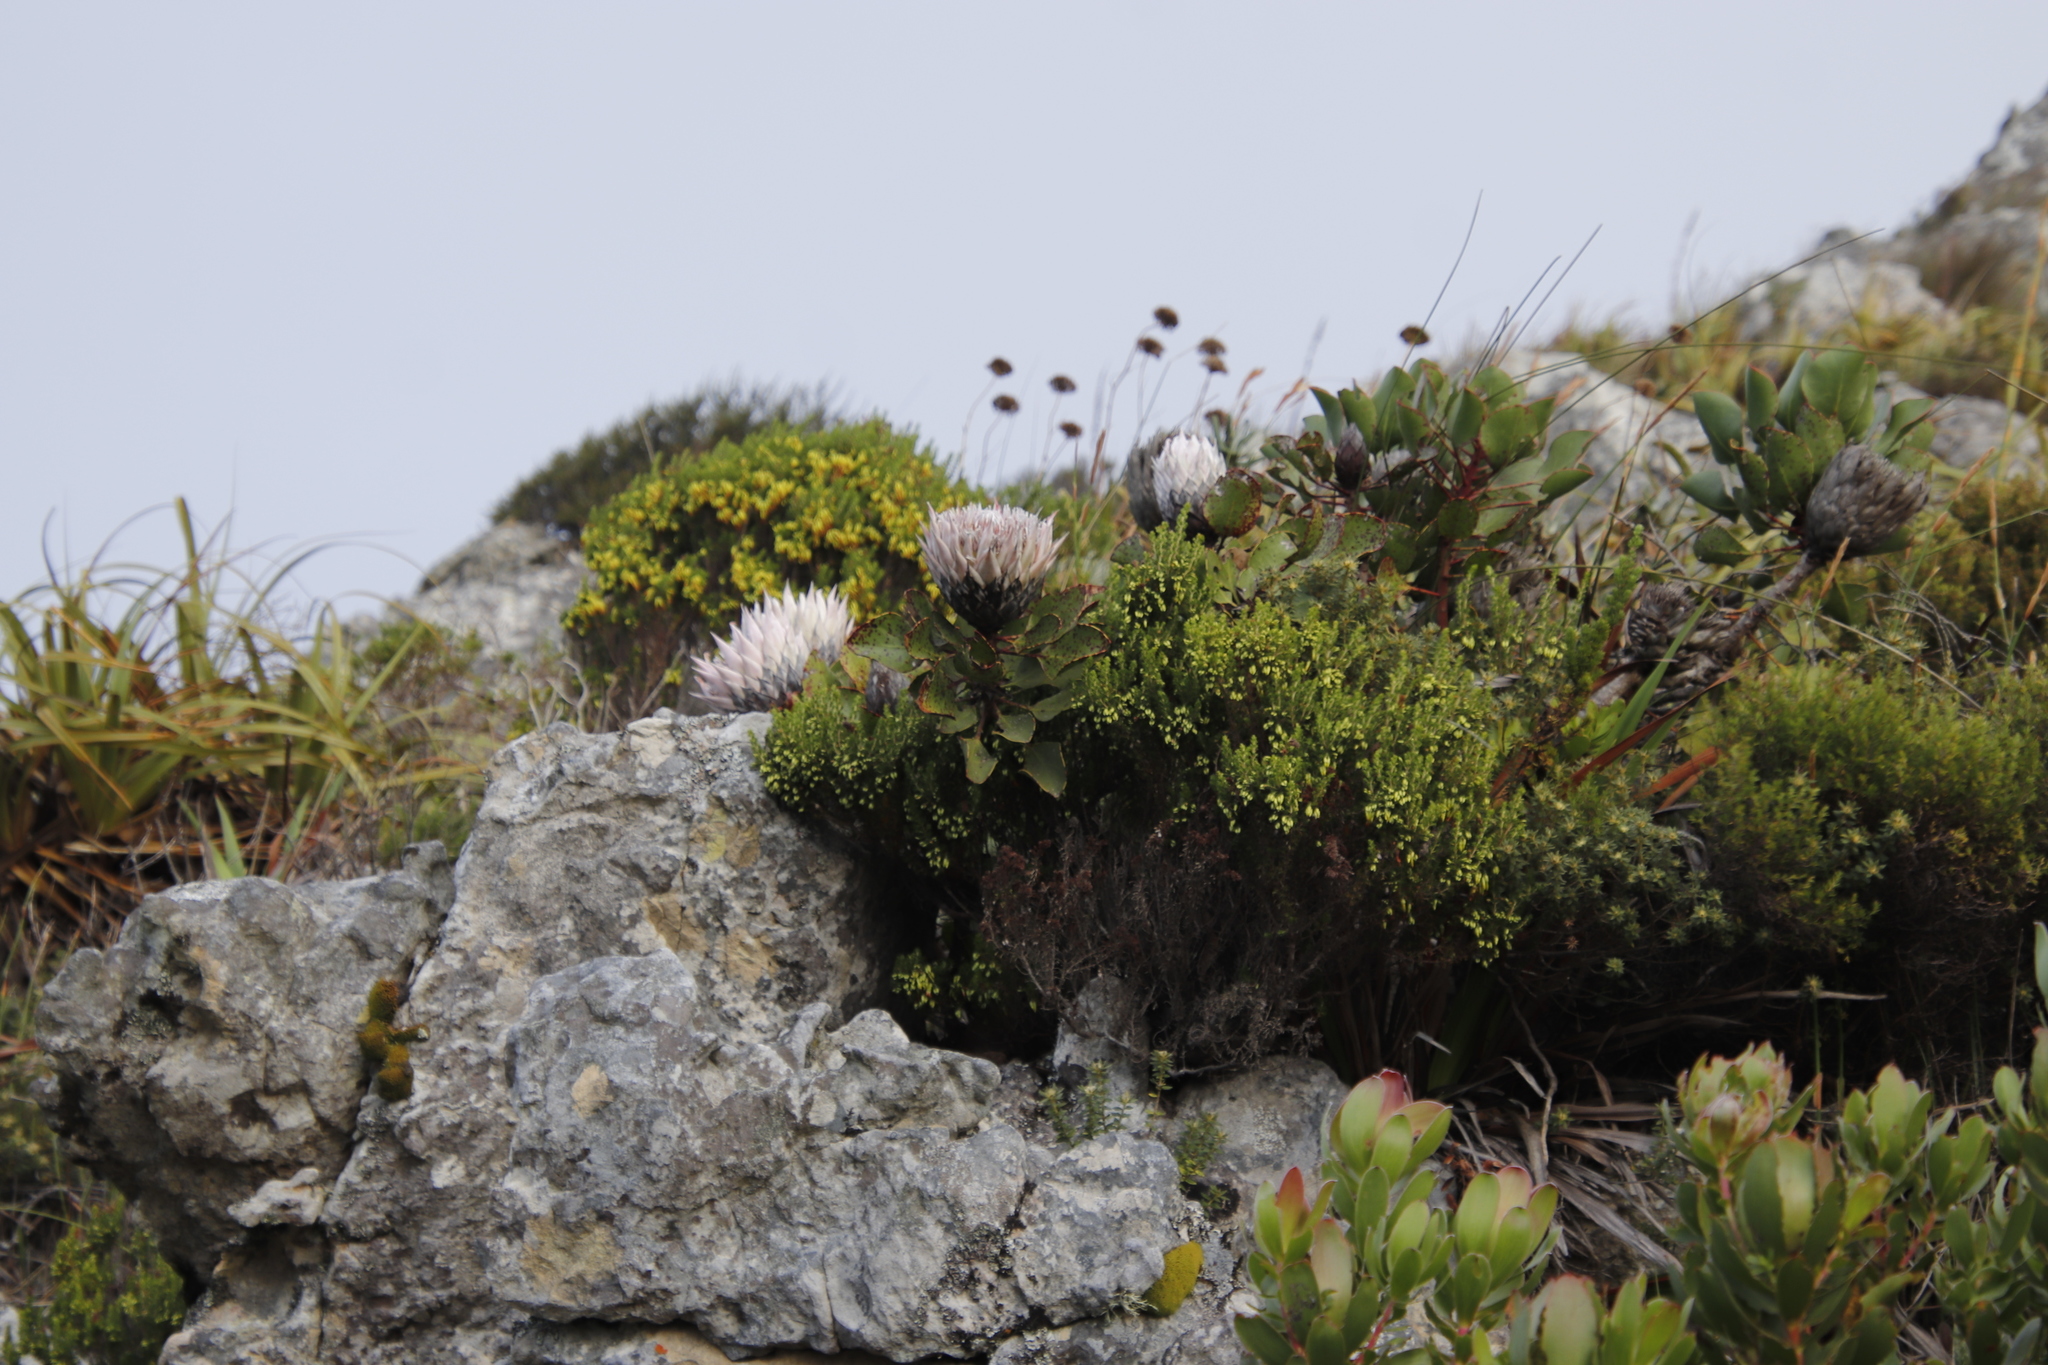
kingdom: Plantae
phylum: Tracheophyta
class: Magnoliopsida
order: Proteales
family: Proteaceae
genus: Protea
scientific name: Protea cynaroides
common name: King protea
